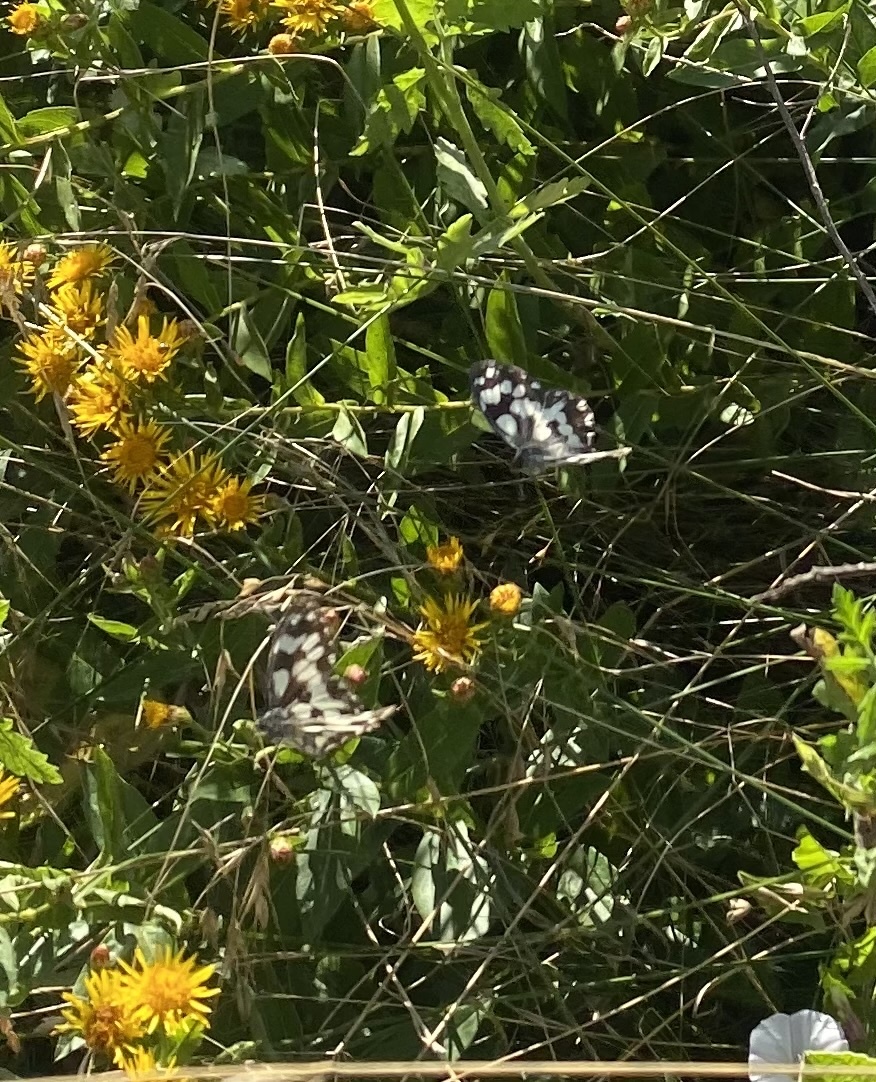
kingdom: Animalia
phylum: Arthropoda
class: Insecta
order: Lepidoptera
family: Nymphalidae
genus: Melanargia
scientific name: Melanargia galathea
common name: Marbled white
